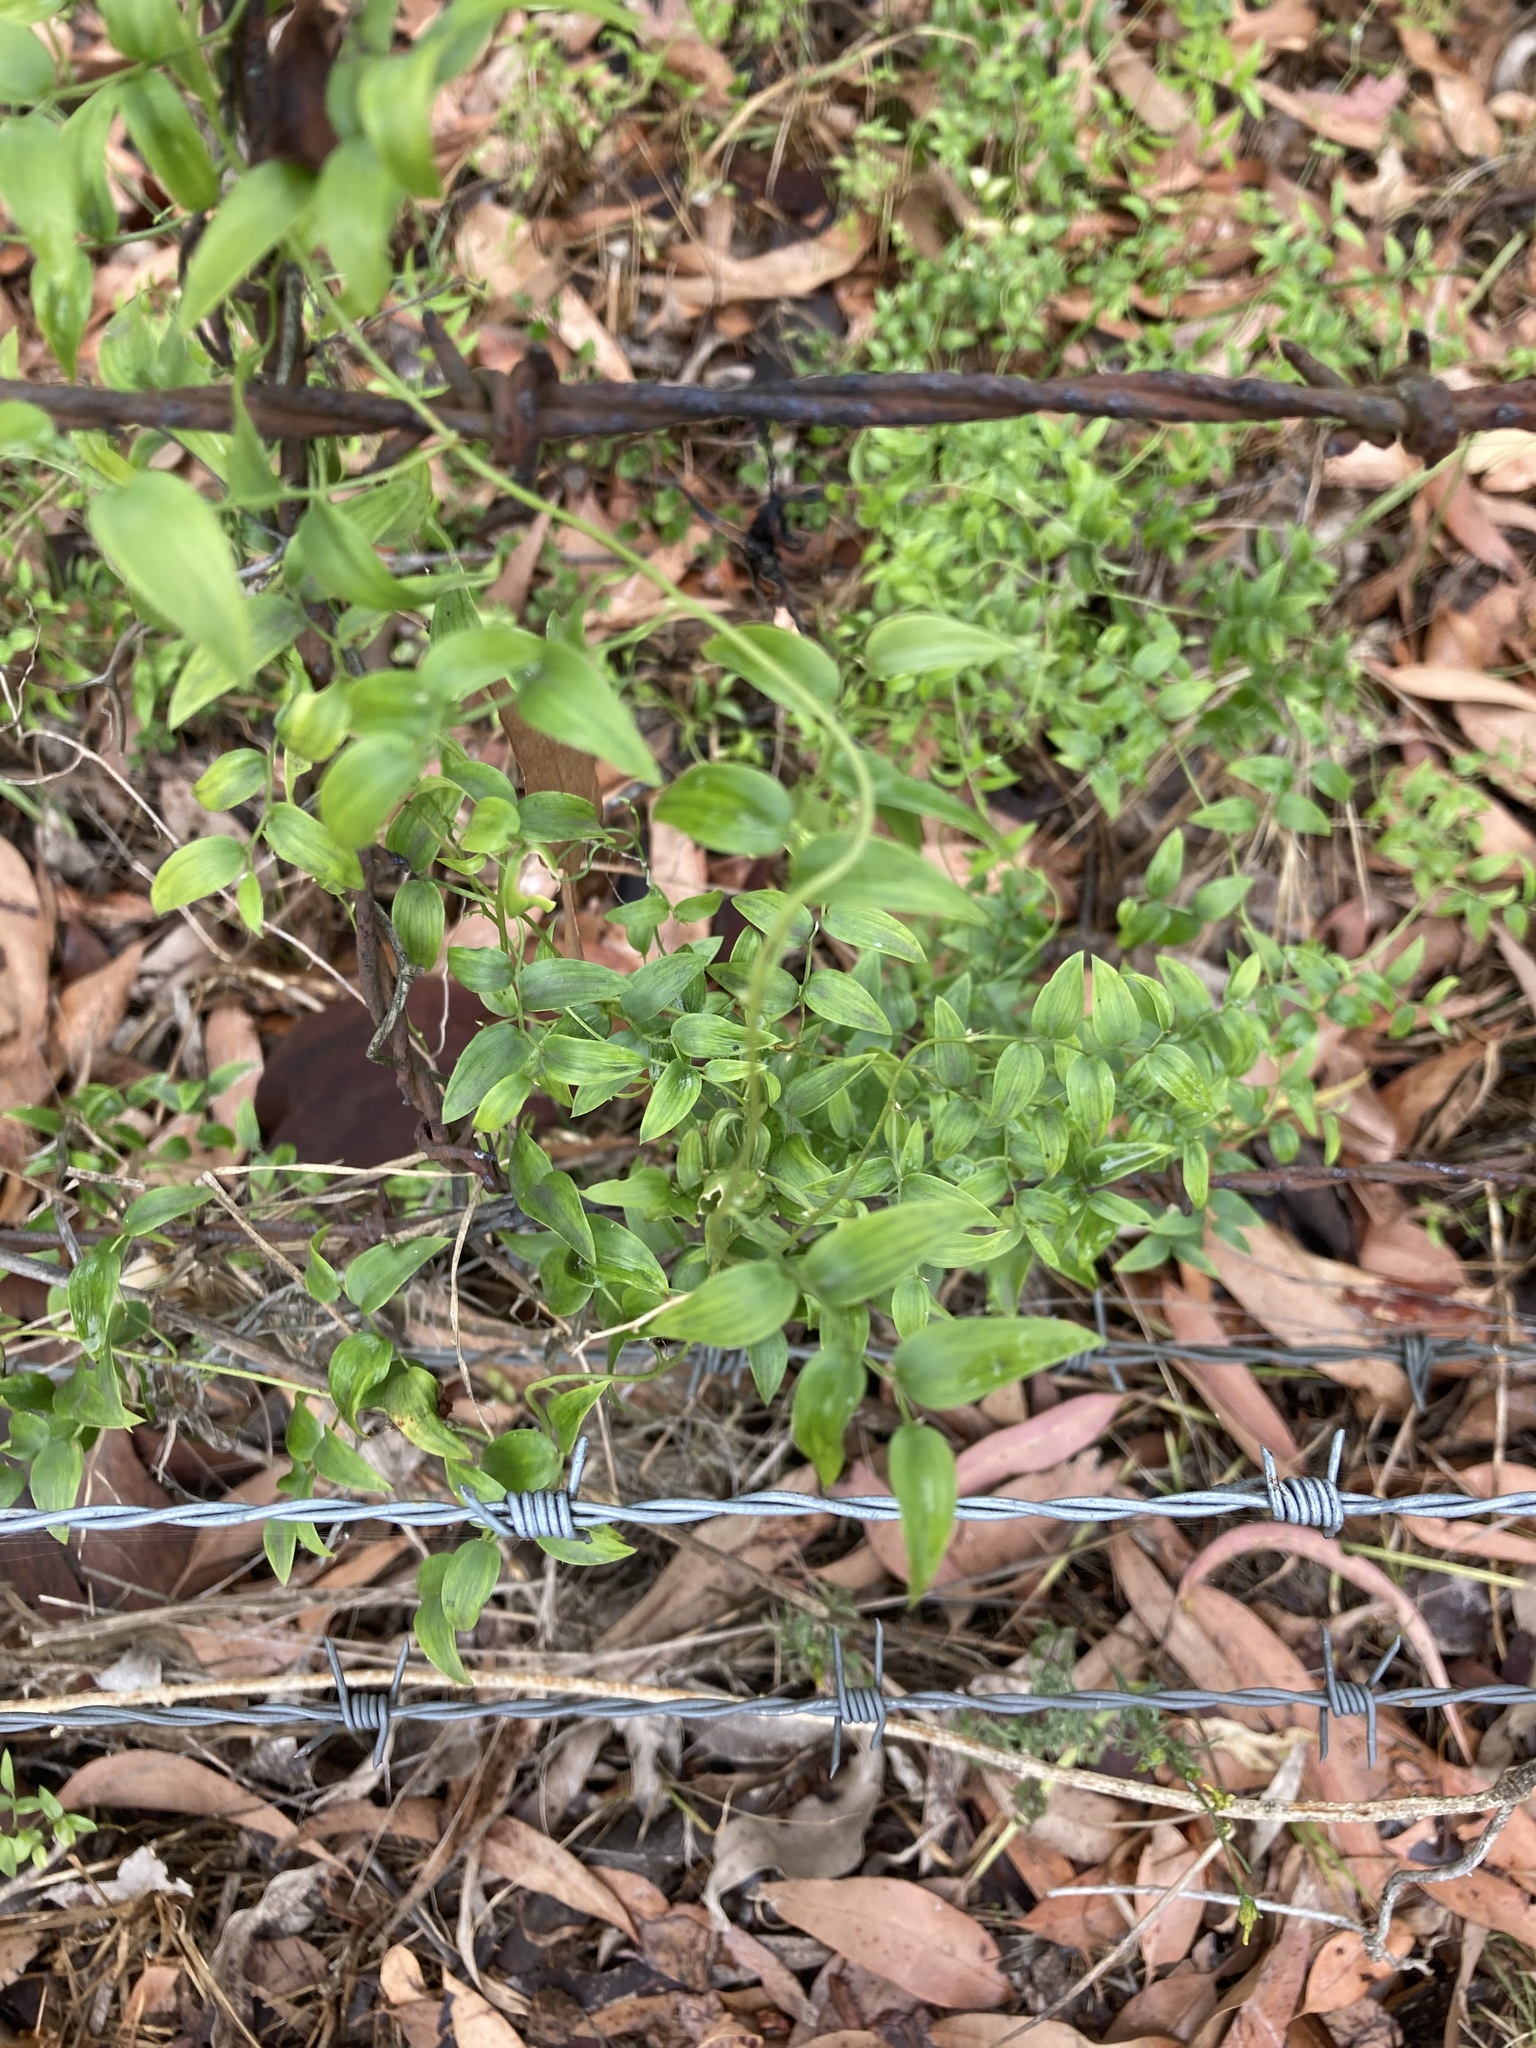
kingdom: Plantae
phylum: Tracheophyta
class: Liliopsida
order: Asparagales
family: Asparagaceae
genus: Asparagus
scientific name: Asparagus asparagoides
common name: African asparagus fern
